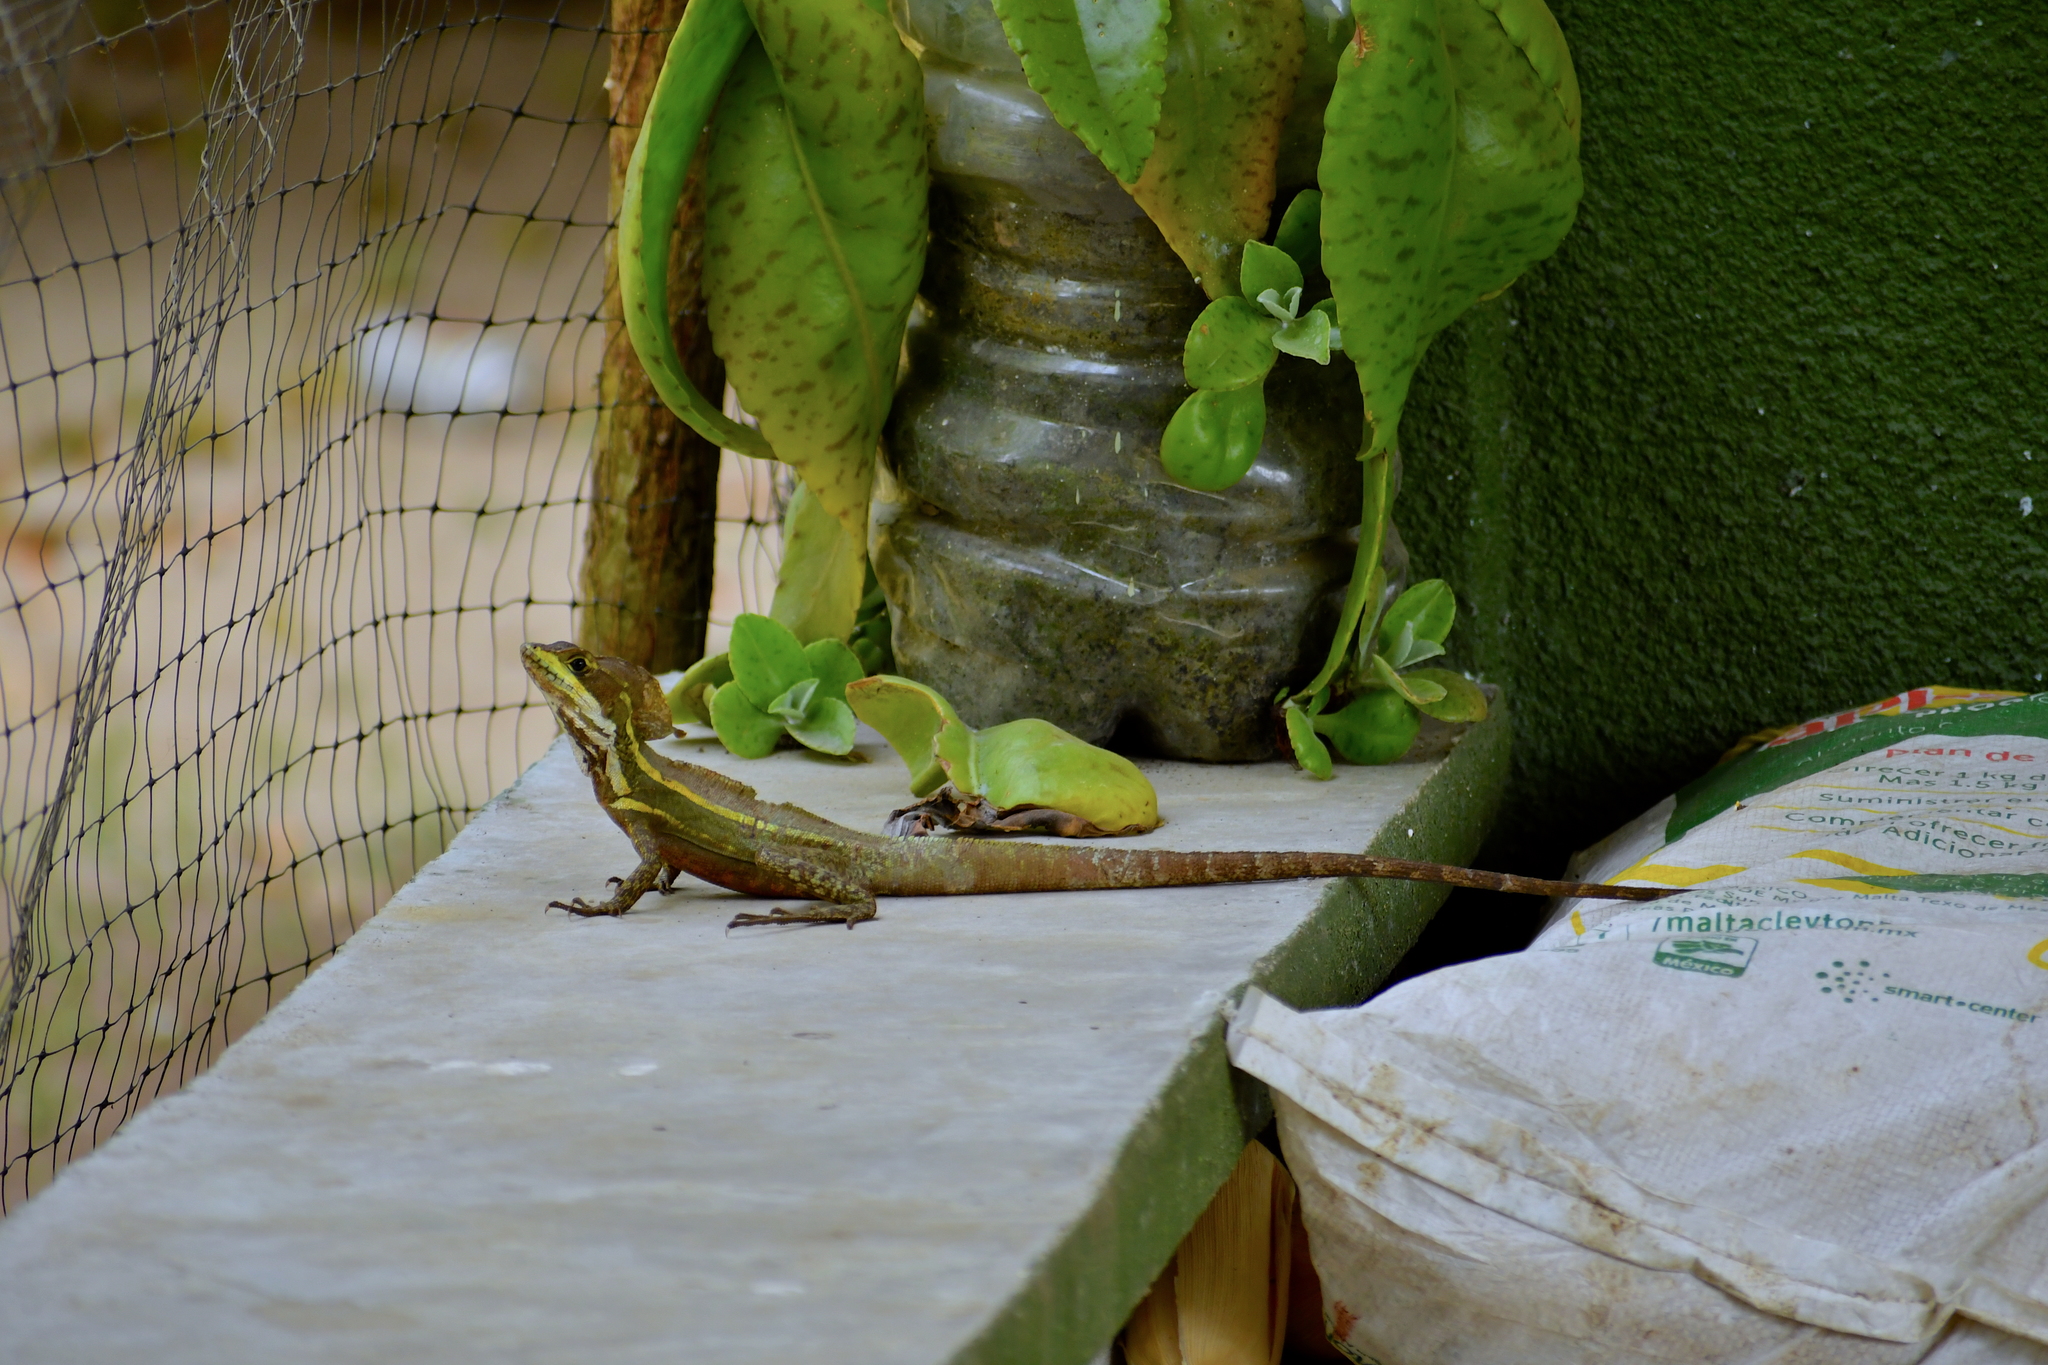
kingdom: Animalia
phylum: Chordata
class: Squamata
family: Corytophanidae
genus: Basiliscus
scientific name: Basiliscus vittatus
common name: Brown basilisk
